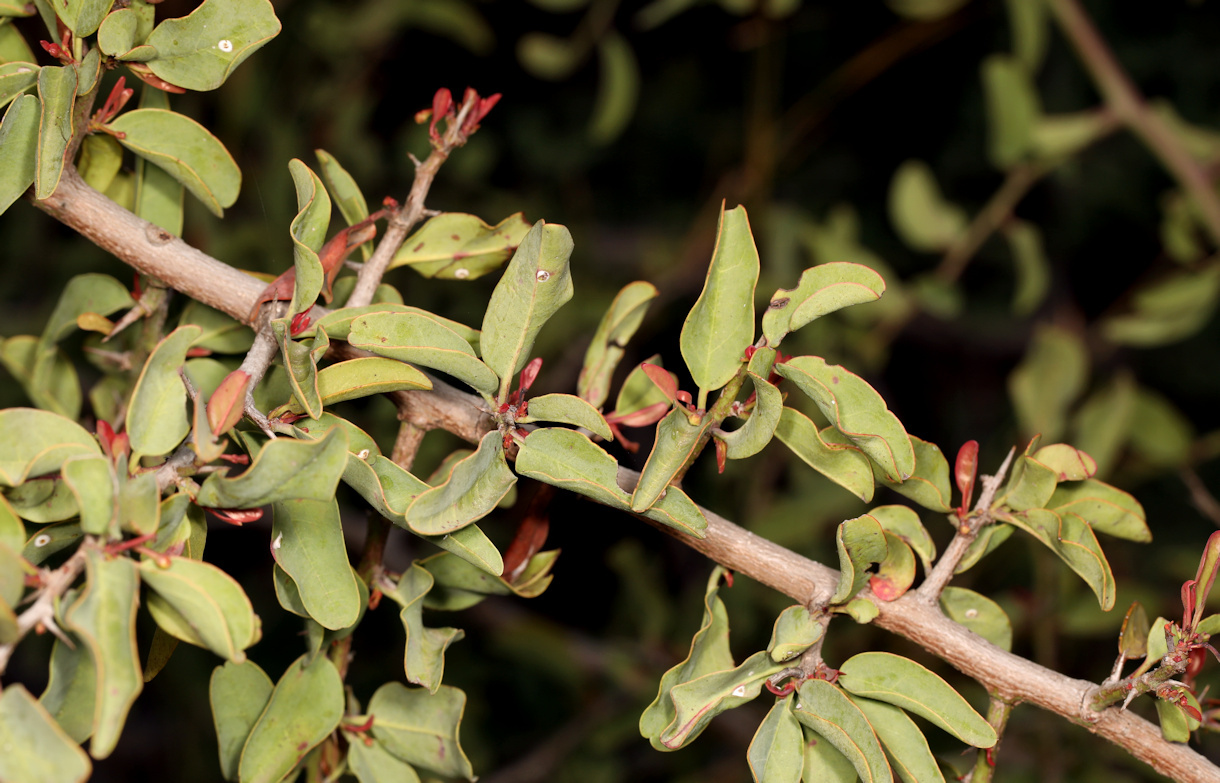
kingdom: Plantae
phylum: Tracheophyta
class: Magnoliopsida
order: Santalales
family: Ximeniaceae
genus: Ximenia
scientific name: Ximenia americana
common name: Tallowwood
